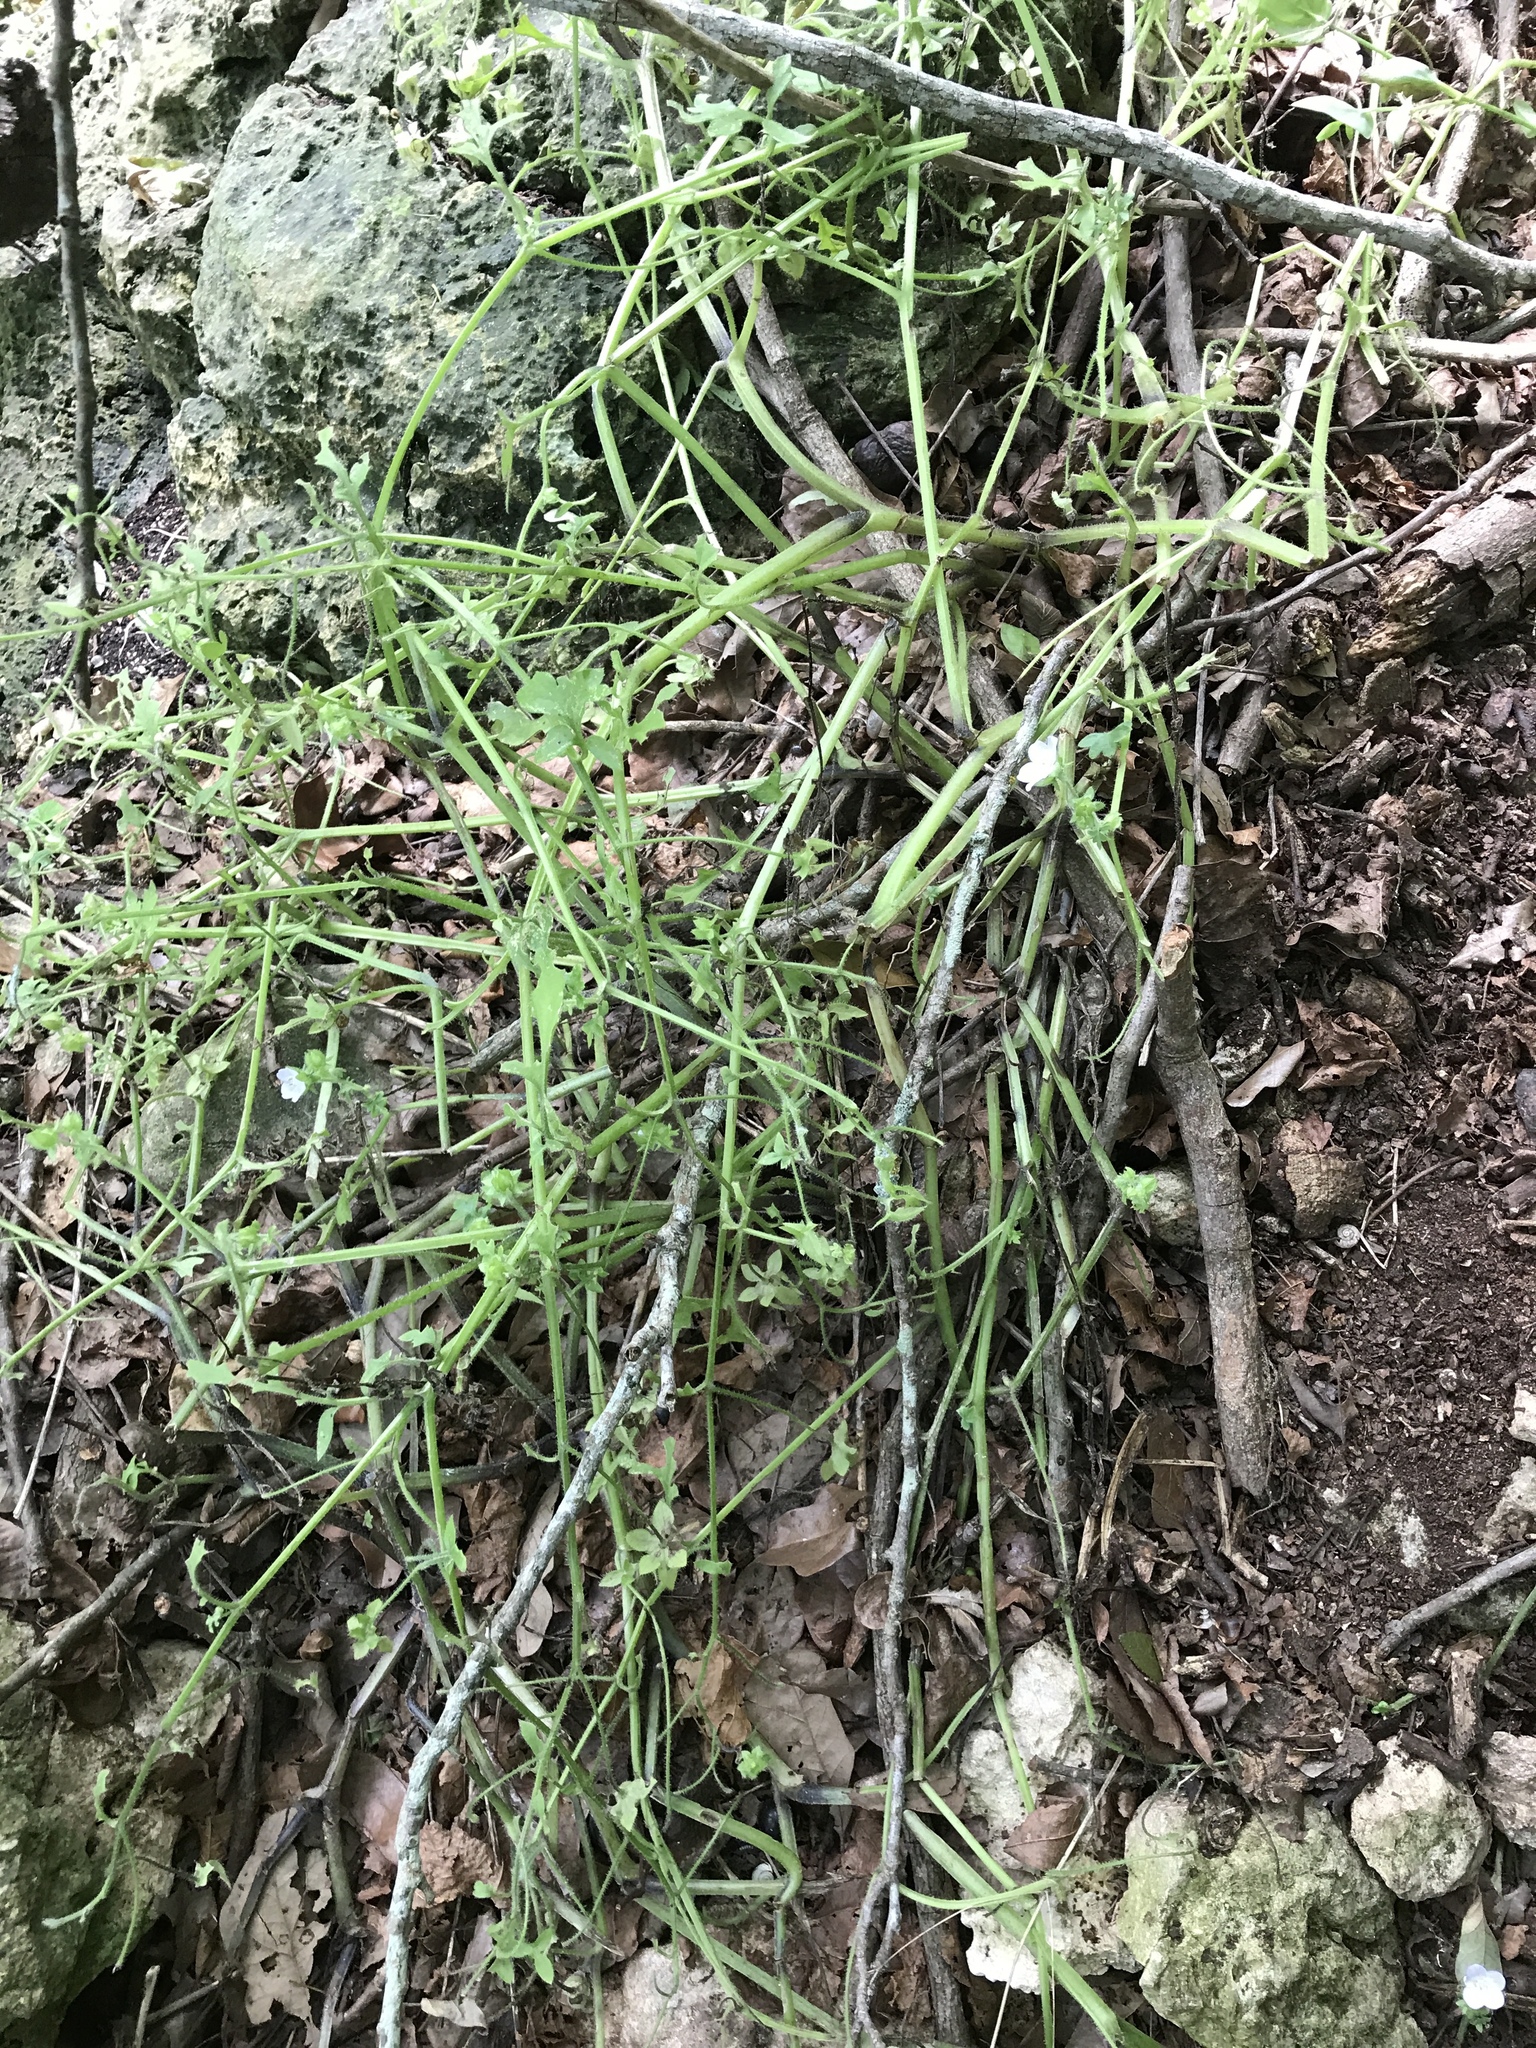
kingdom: Plantae
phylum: Tracheophyta
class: Magnoliopsida
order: Boraginales
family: Hydrophyllaceae
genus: Nemophila
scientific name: Nemophila phacelioides
